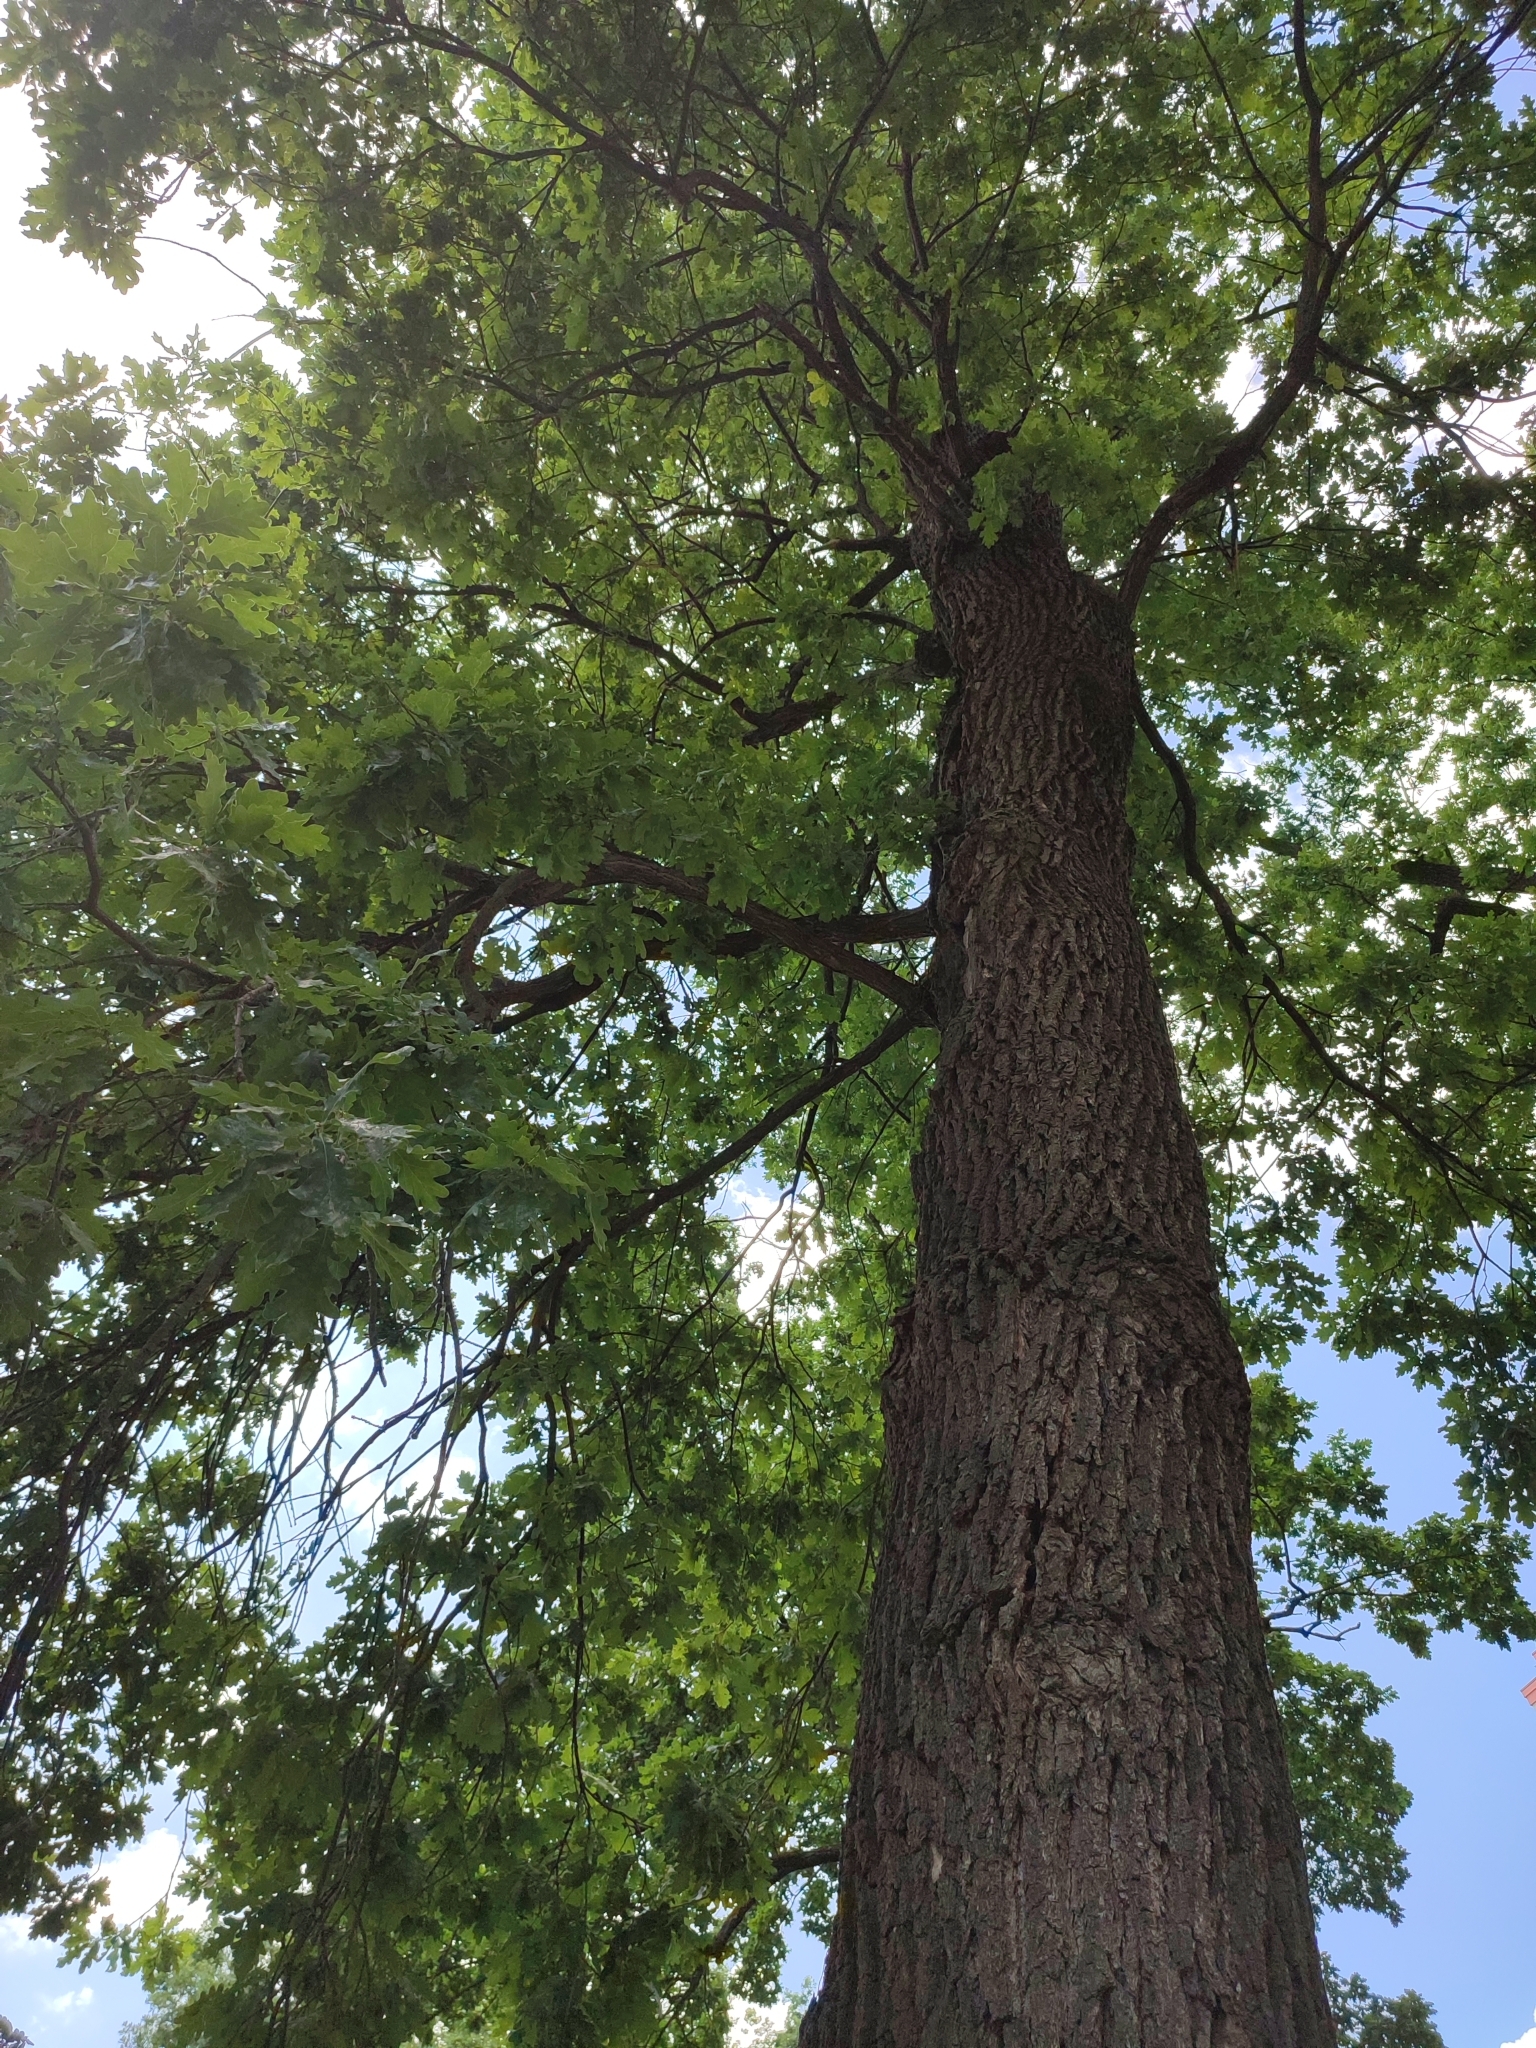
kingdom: Plantae
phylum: Tracheophyta
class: Magnoliopsida
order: Fagales
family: Fagaceae
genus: Quercus
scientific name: Quercus robur
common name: Pedunculate oak
